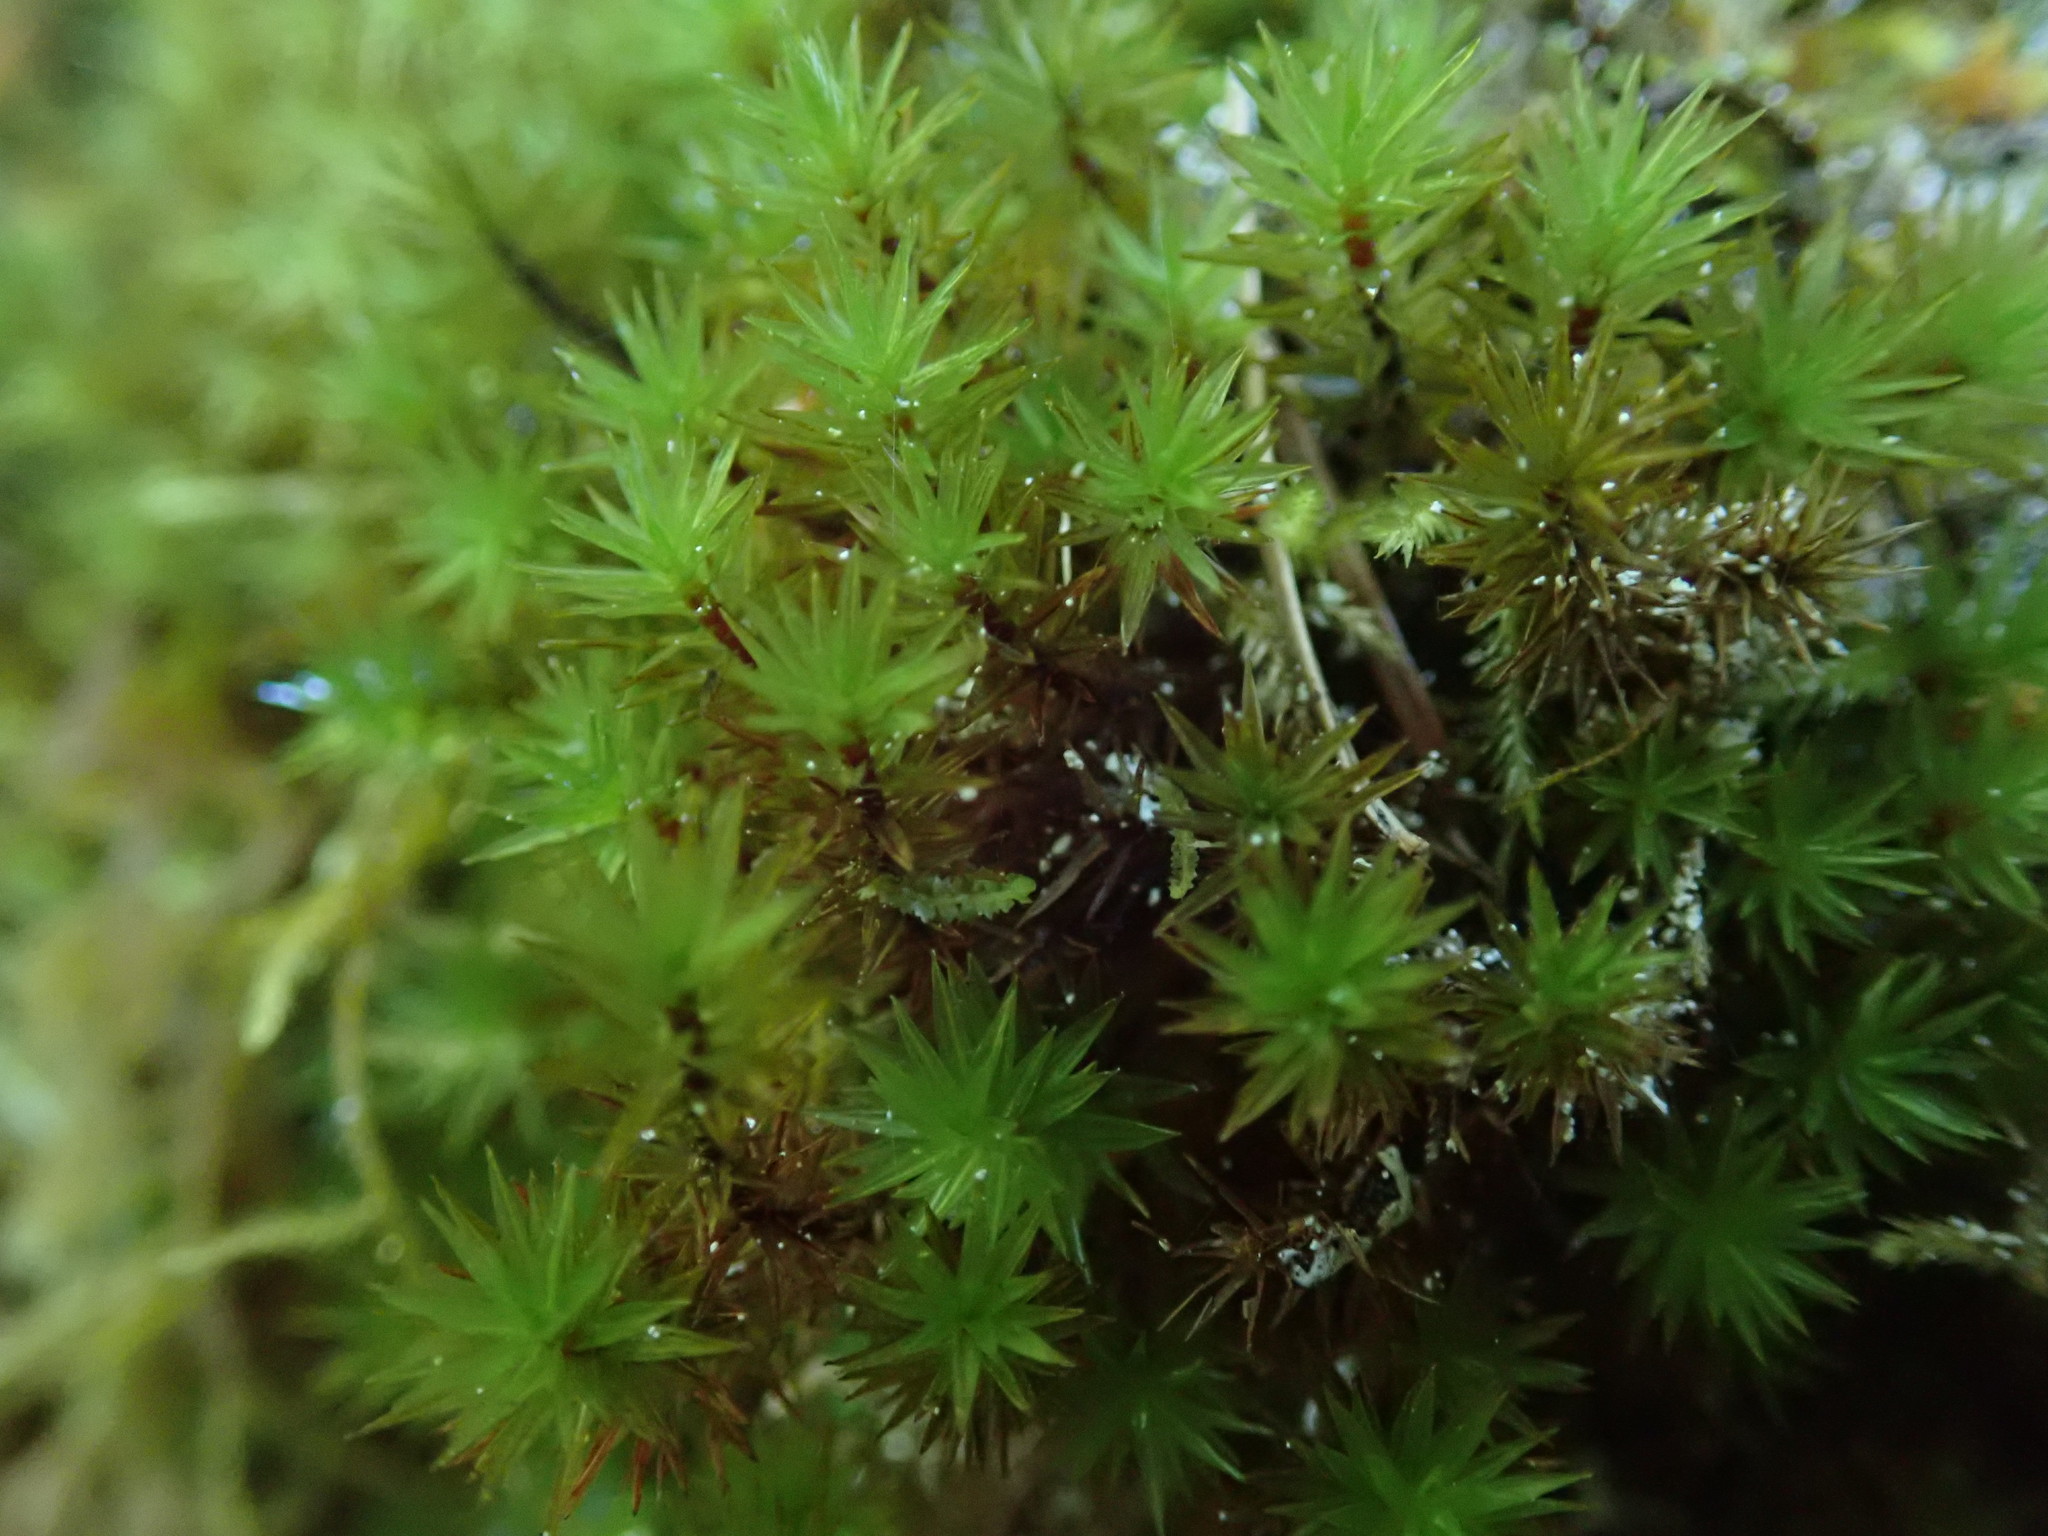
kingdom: Plantae
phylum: Bryophyta
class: Bryopsida
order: Timmiales
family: Timmiaceae
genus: Timmia
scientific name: Timmia austriaca
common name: Austrian timmia
